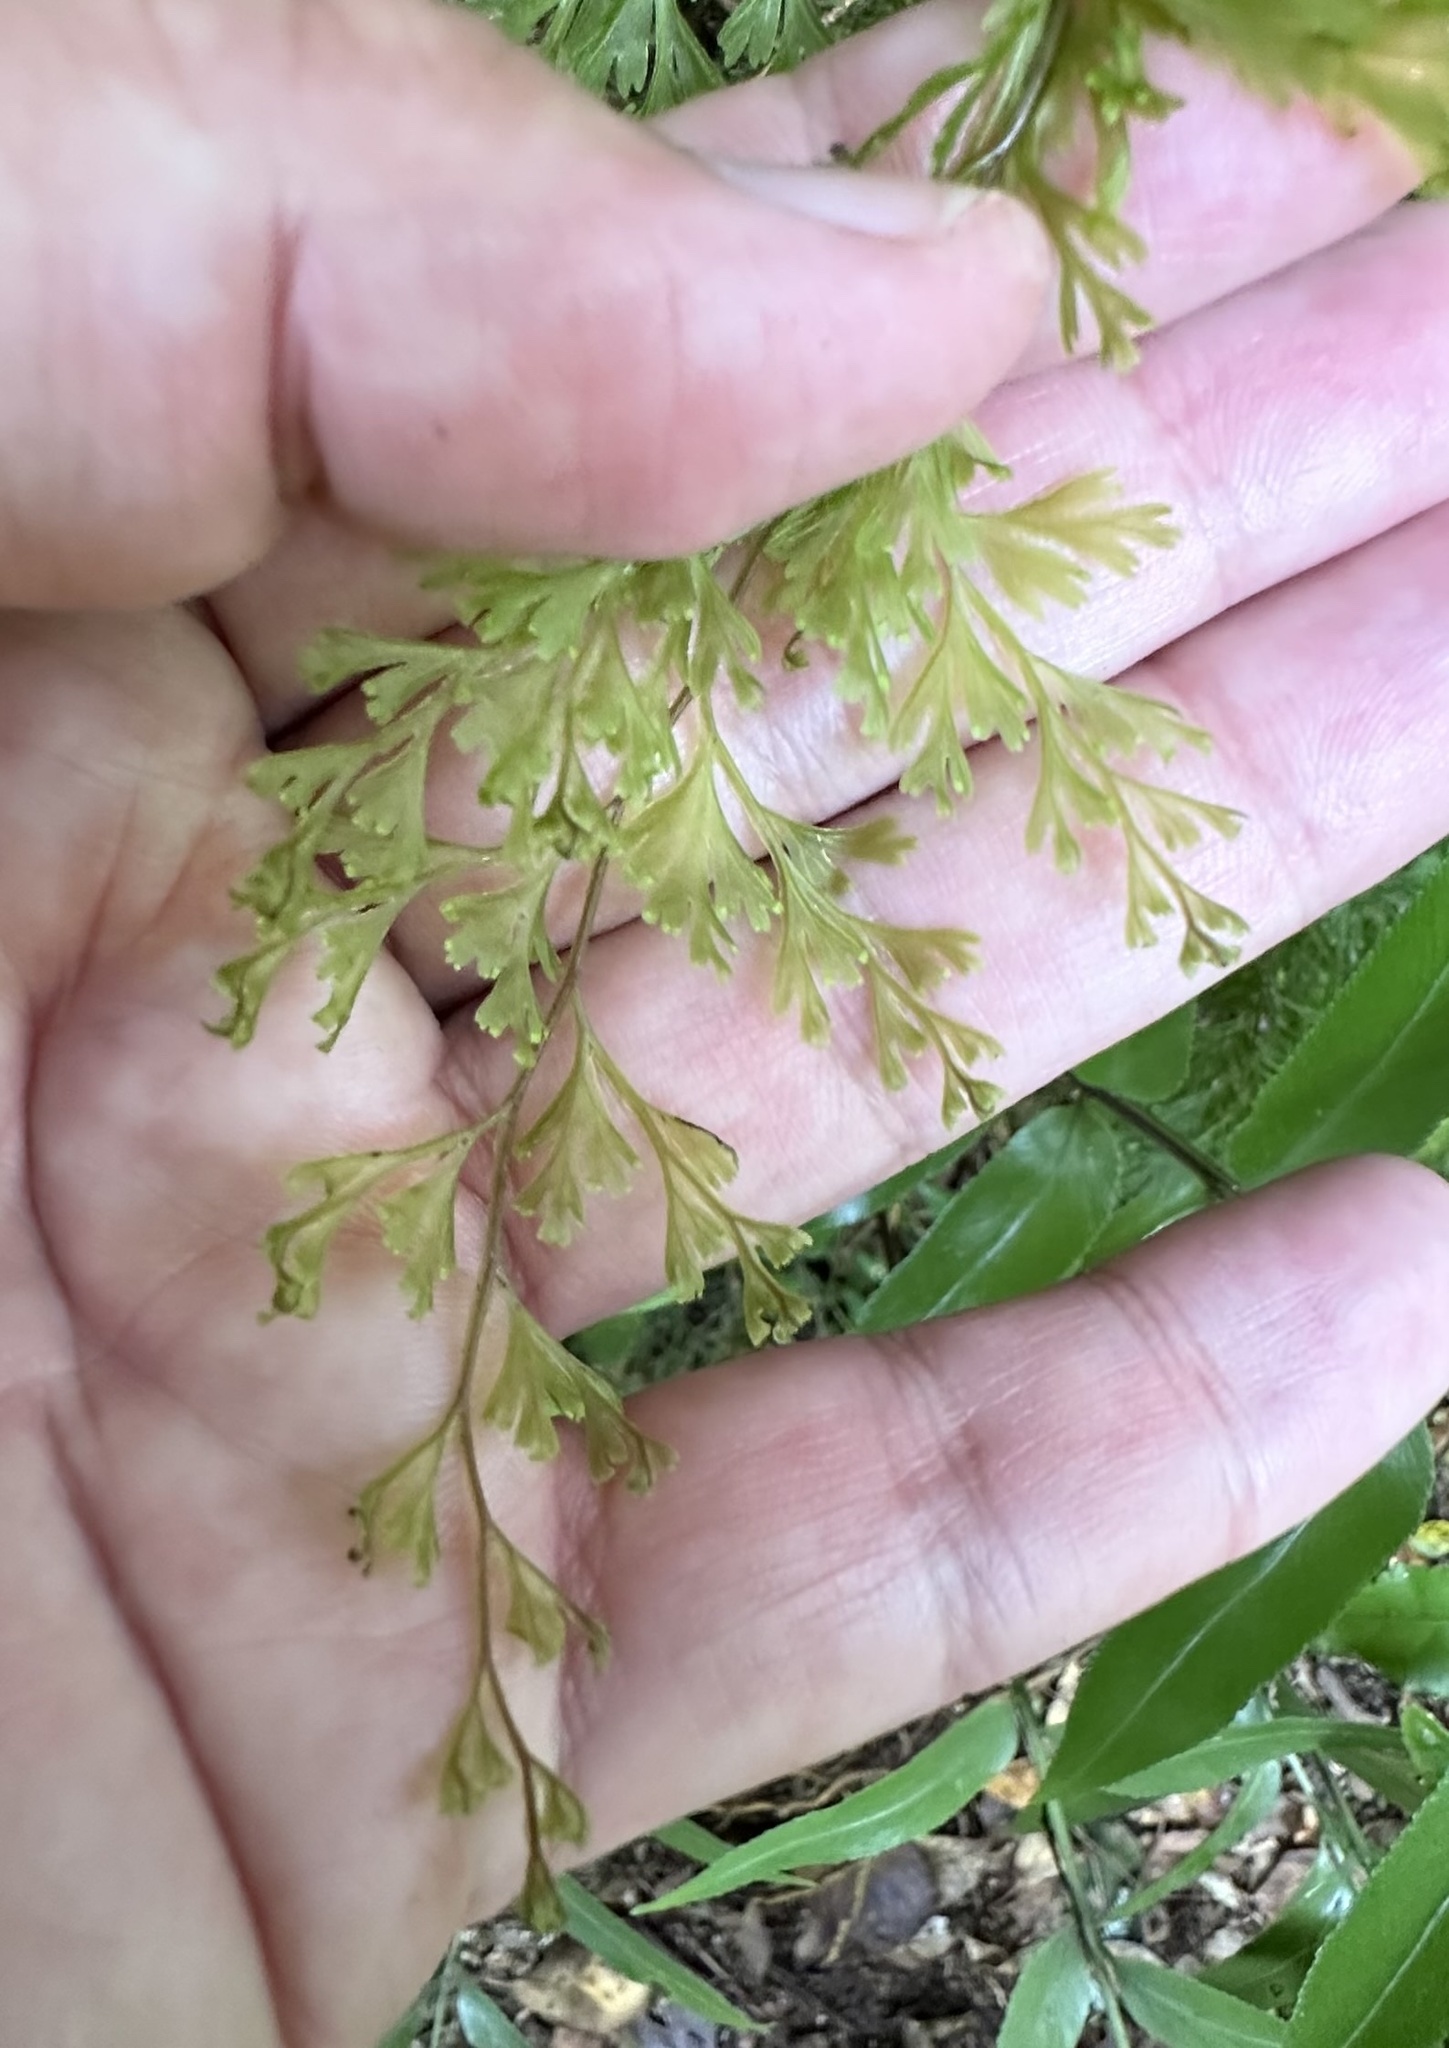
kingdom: Plantae
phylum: Tracheophyta
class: Polypodiopsida
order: Hymenophyllales
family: Hymenophyllaceae
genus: Hymenophyllum
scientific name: Hymenophyllum demissum
